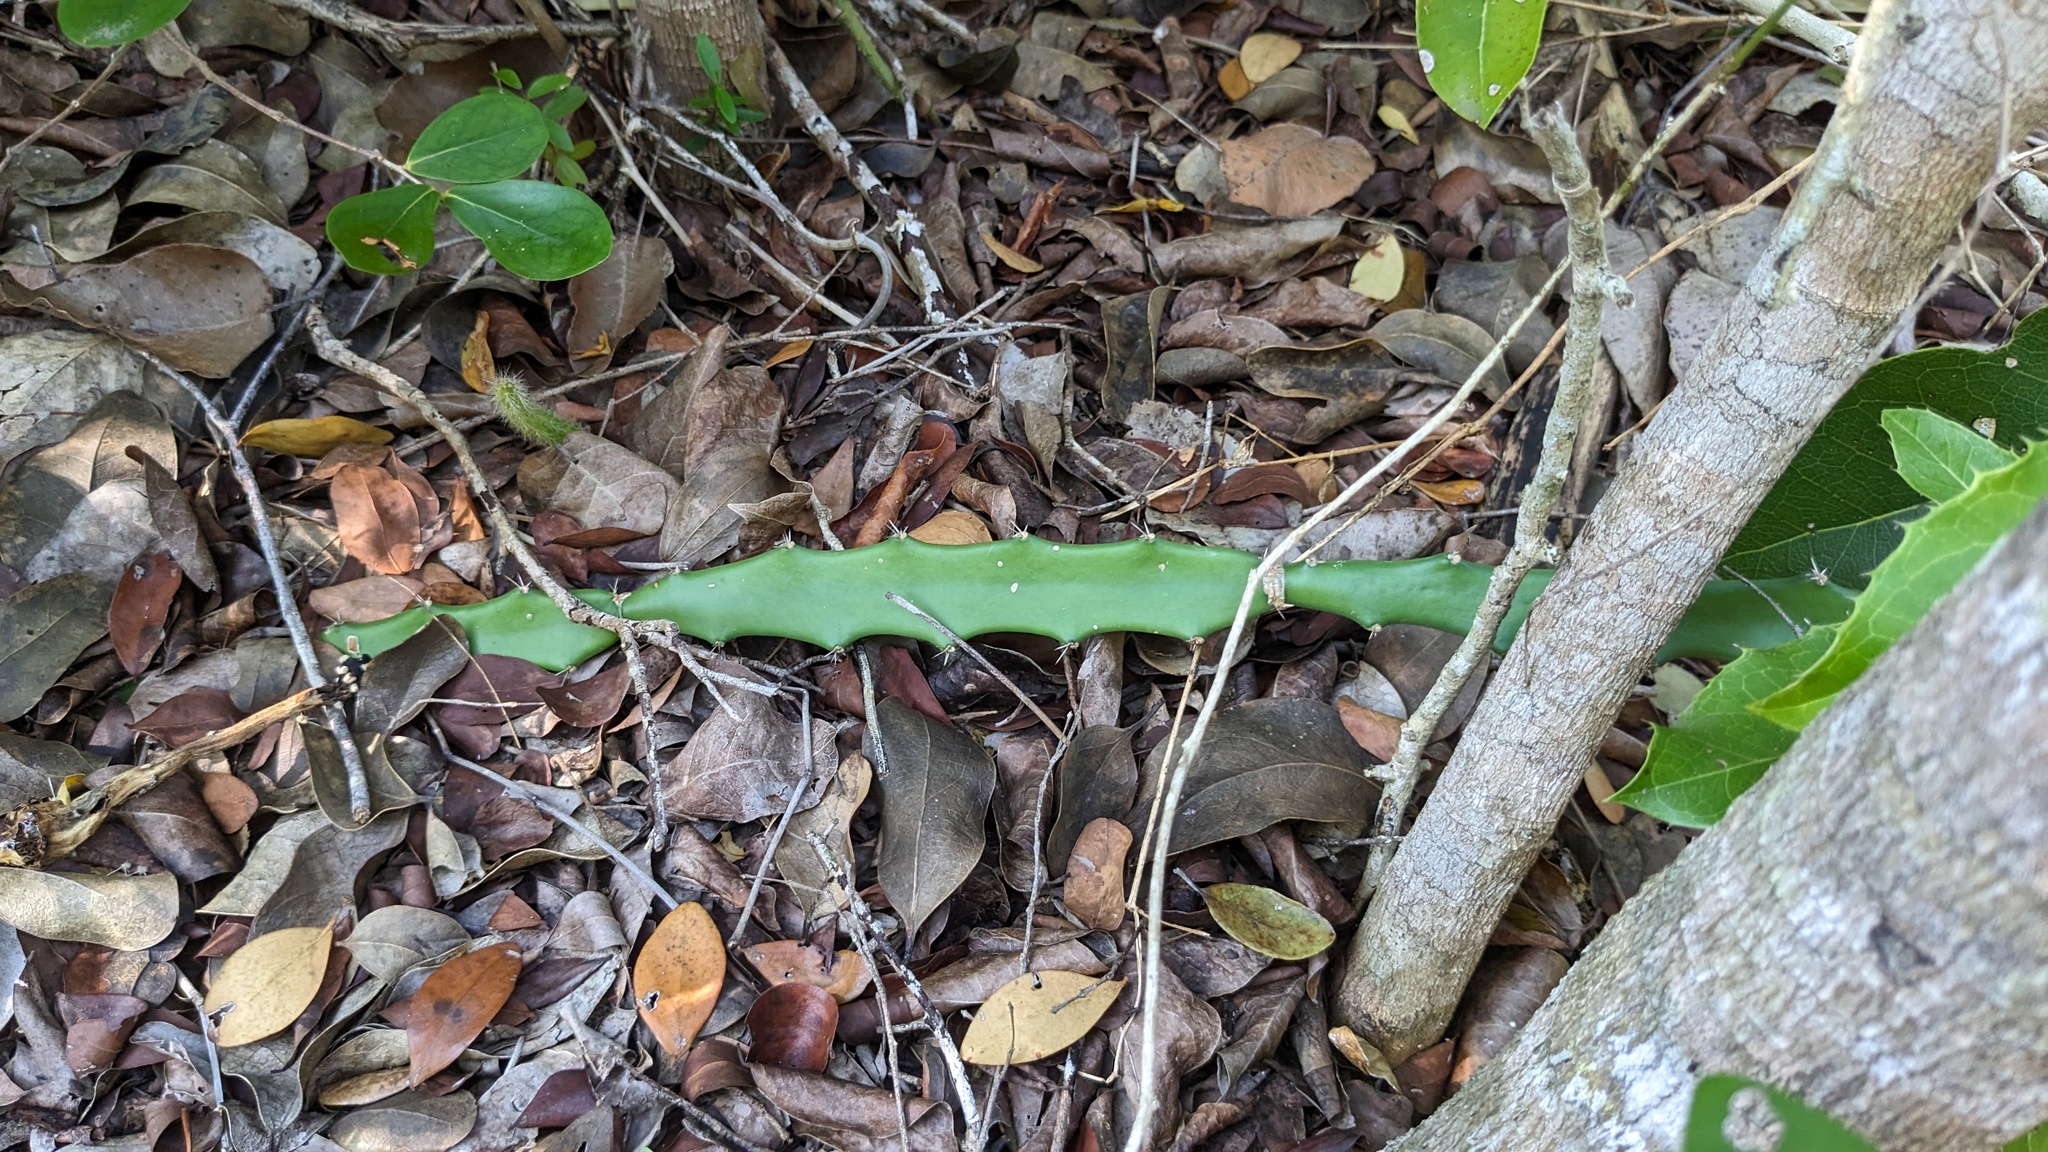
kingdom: Plantae
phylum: Tracheophyta
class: Magnoliopsida
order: Caryophyllales
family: Cactaceae
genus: Acanthocereus
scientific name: Acanthocereus tetragonus
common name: Triangle cactus
